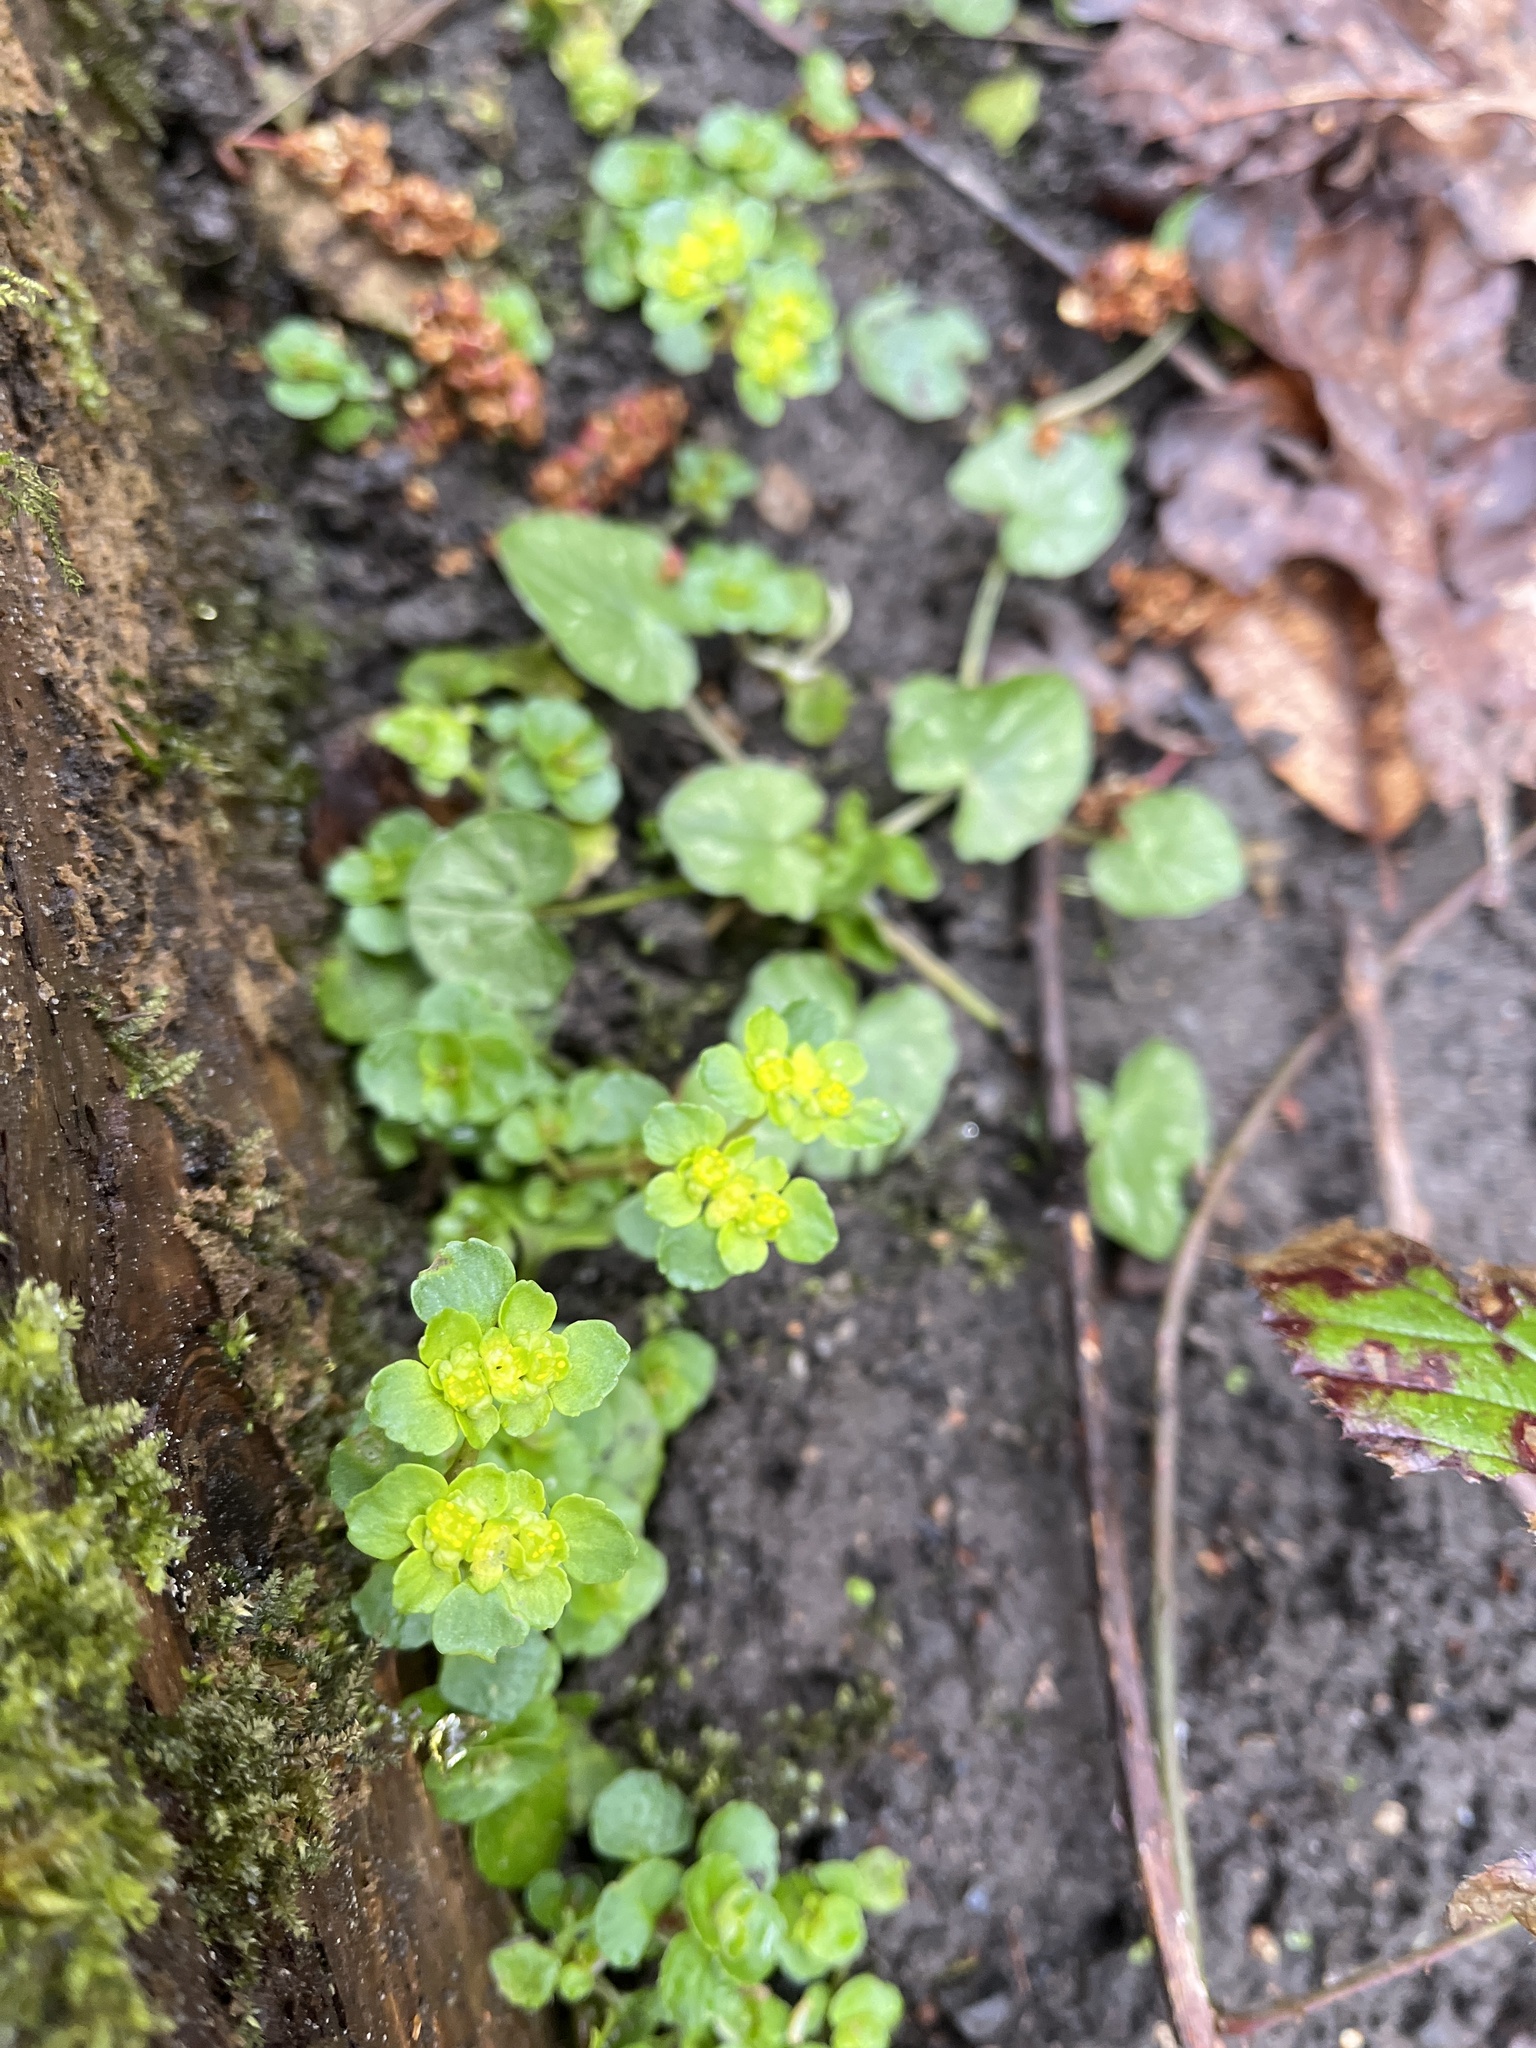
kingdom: Plantae
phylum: Tracheophyta
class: Magnoliopsida
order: Saxifragales
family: Saxifragaceae
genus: Chrysosplenium
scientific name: Chrysosplenium oppositifolium
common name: Opposite-leaved golden-saxifrage
